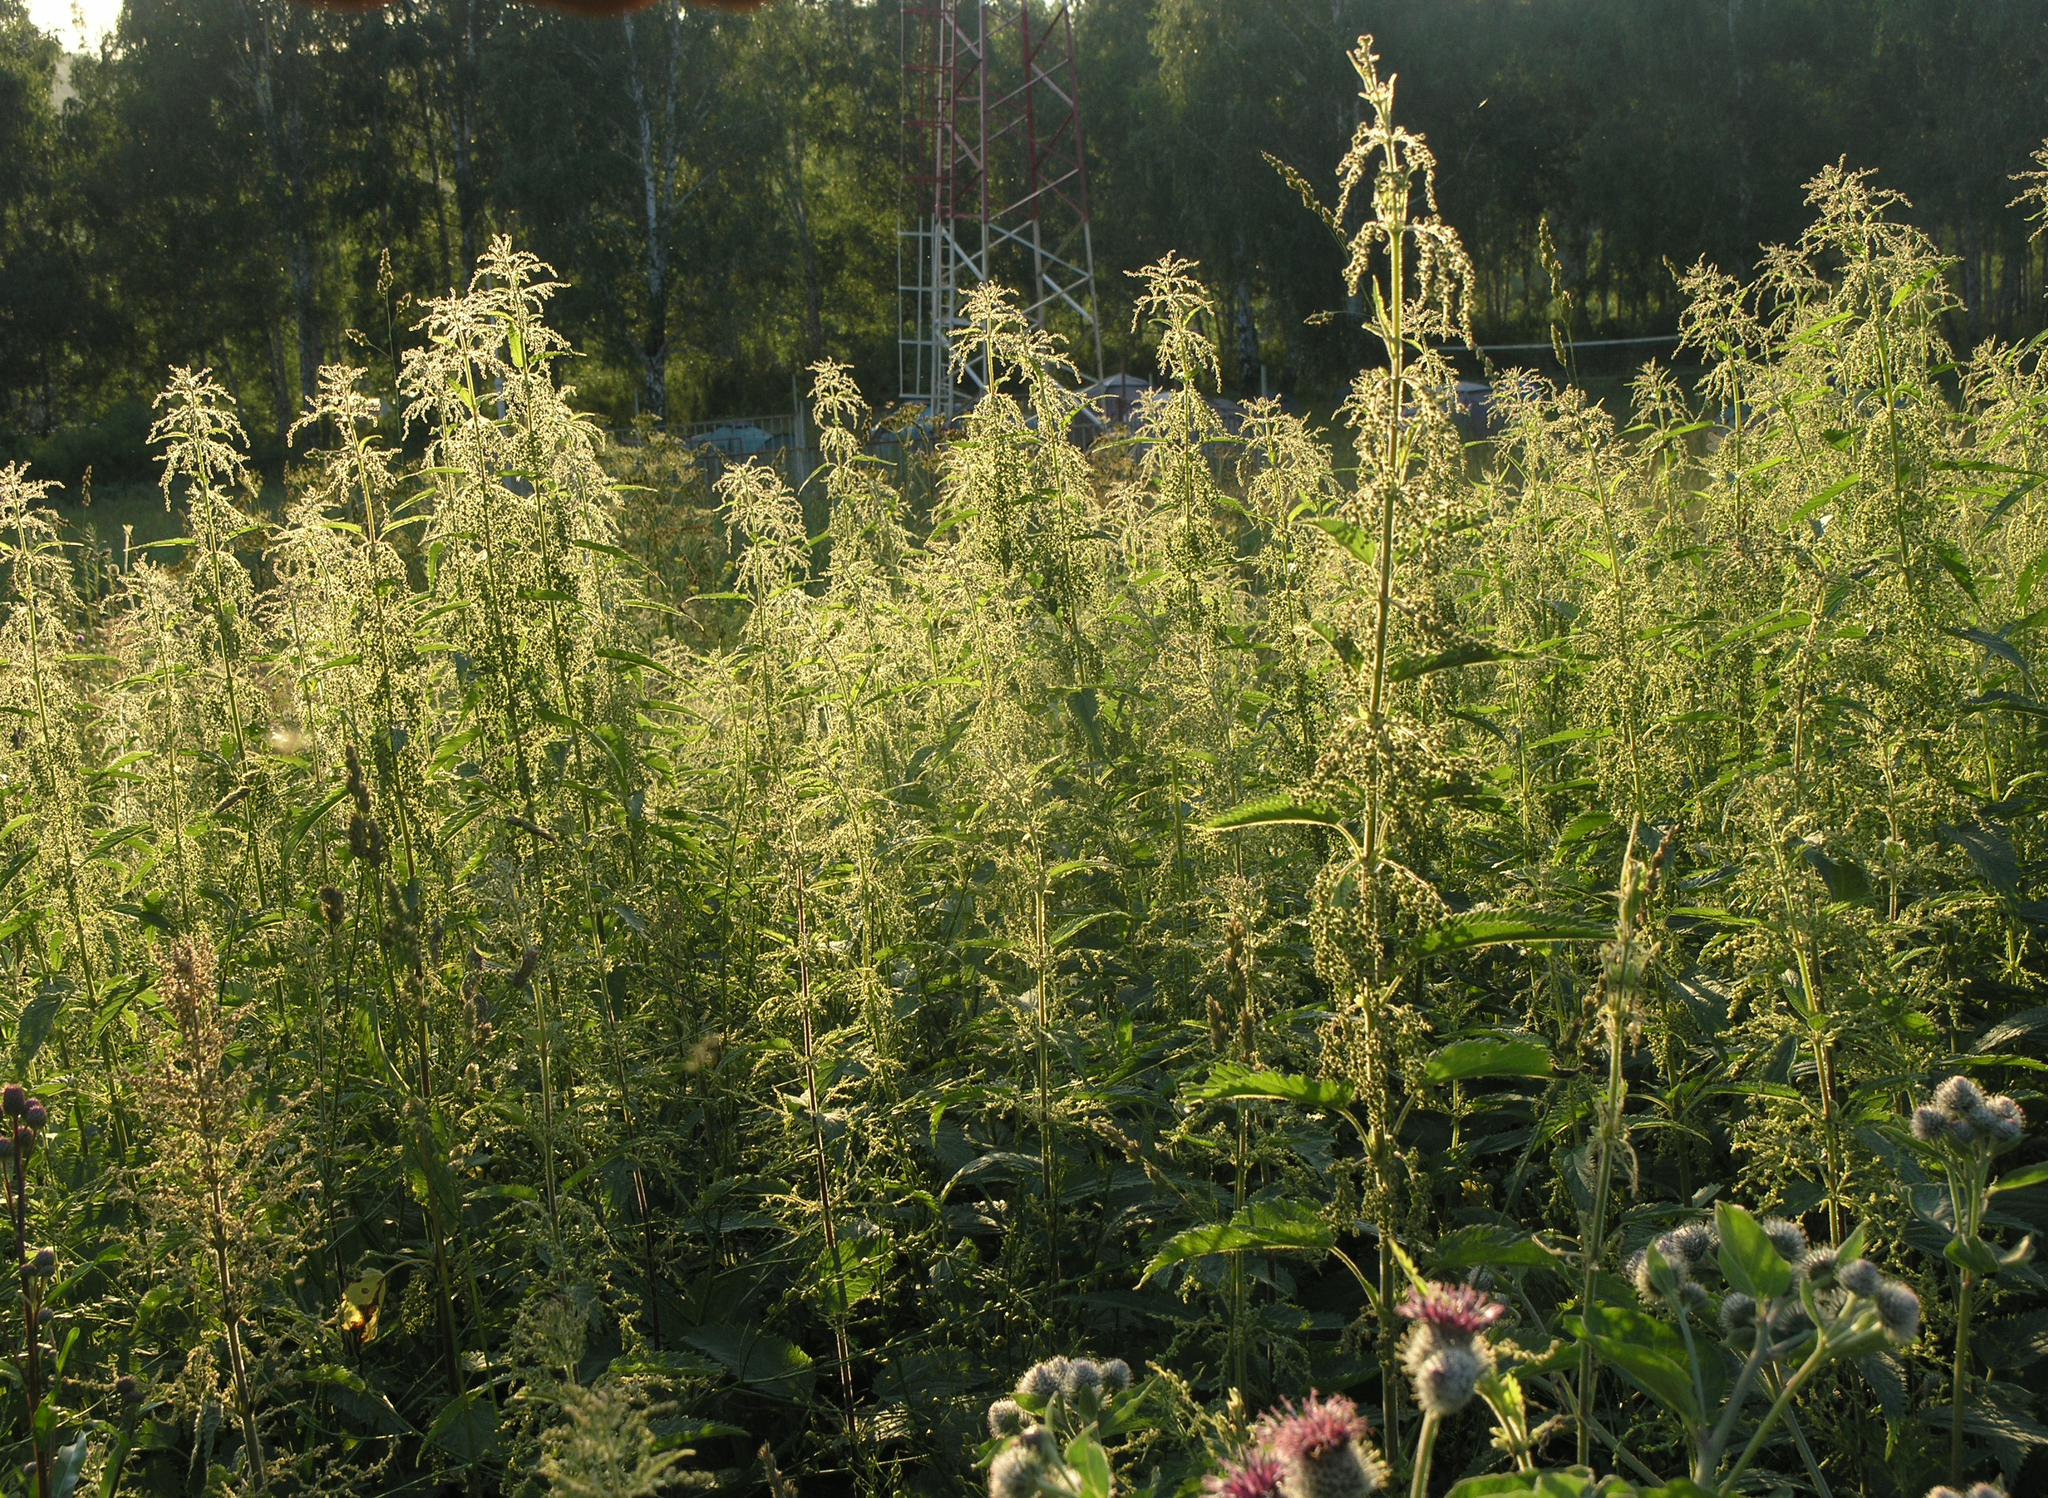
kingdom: Plantae
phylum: Tracheophyta
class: Magnoliopsida
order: Rosales
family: Urticaceae
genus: Urtica
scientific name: Urtica dioica
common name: Common nettle
